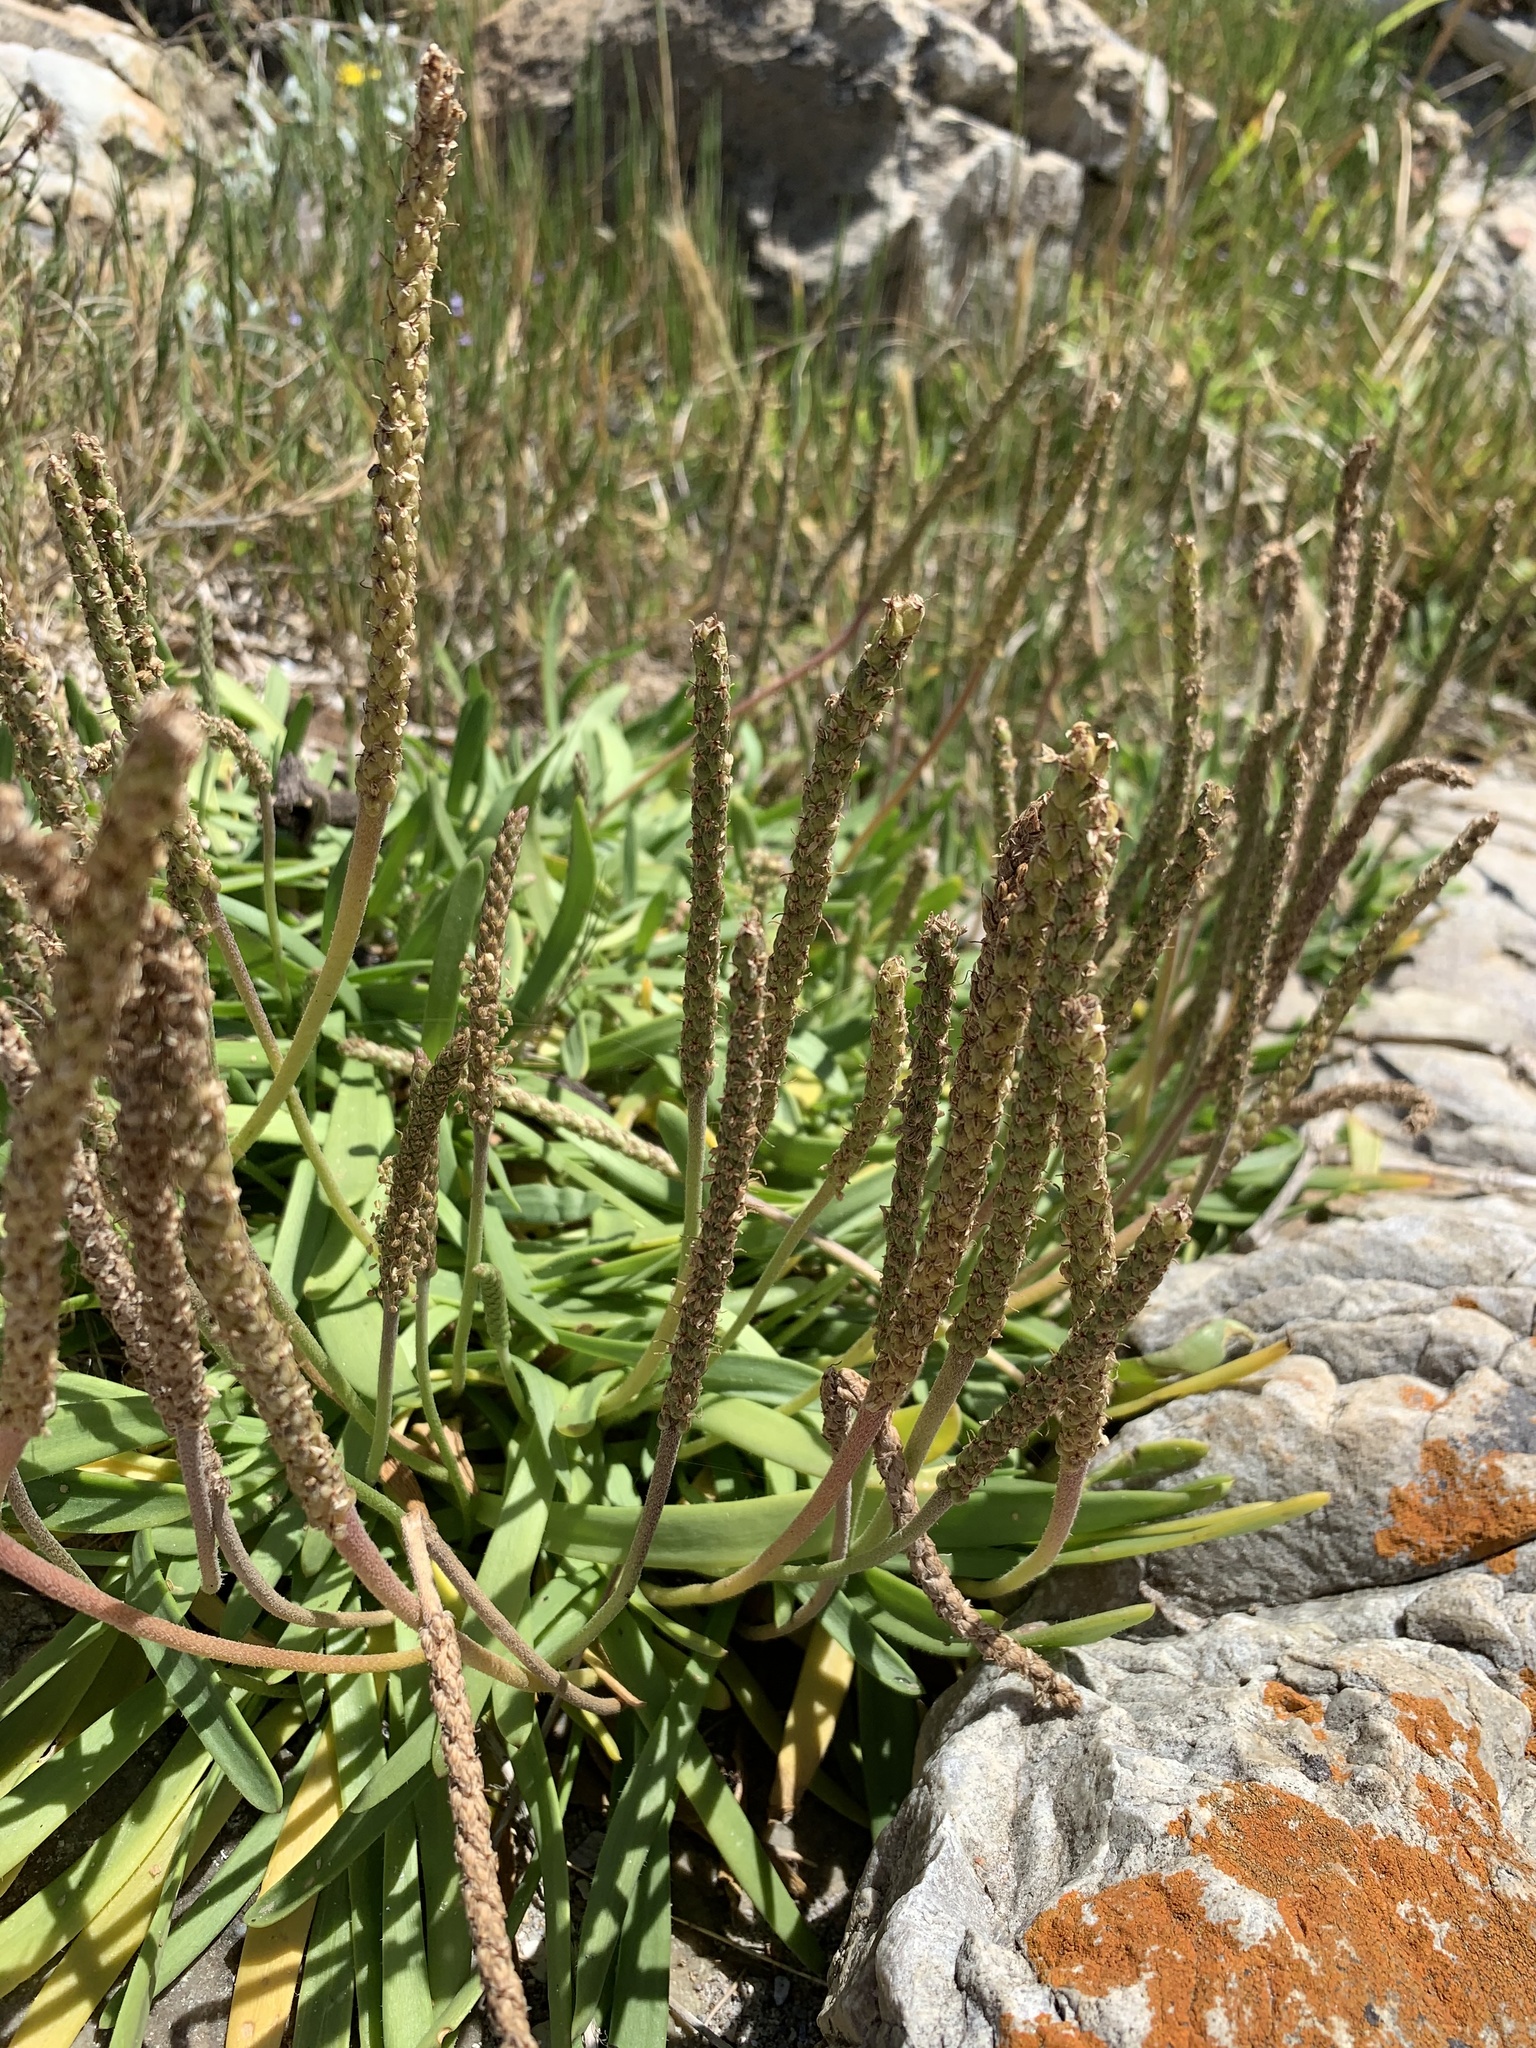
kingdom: Plantae
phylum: Tracheophyta
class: Magnoliopsida
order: Lamiales
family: Plantaginaceae
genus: Plantago
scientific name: Plantago carnosa
